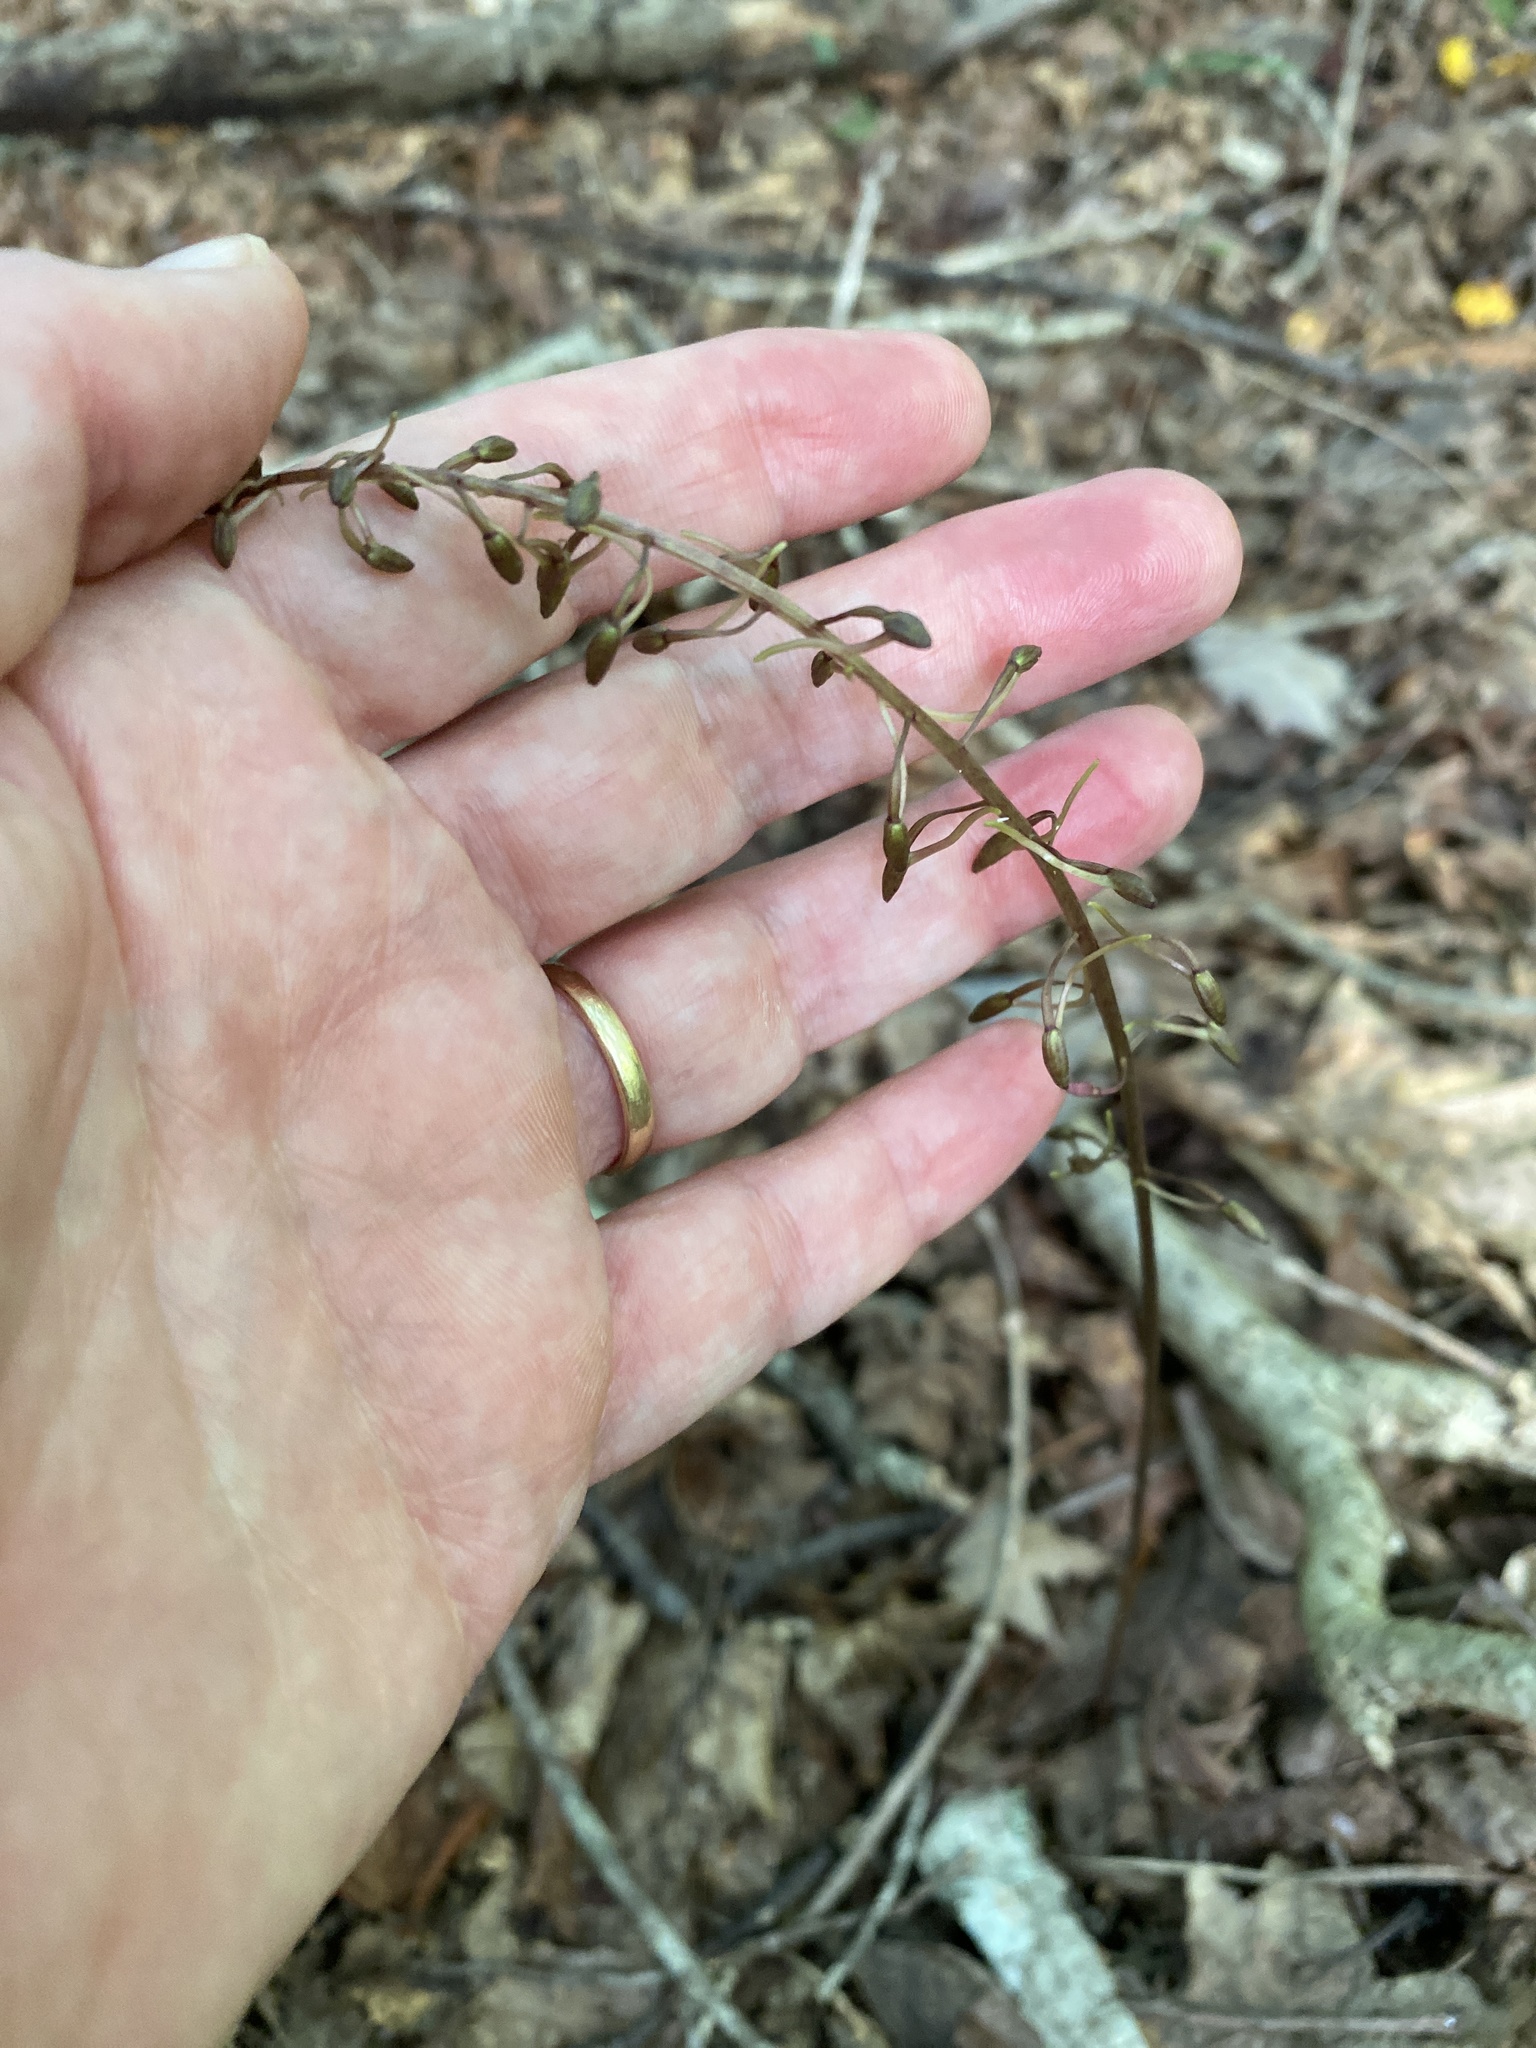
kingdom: Plantae
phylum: Tracheophyta
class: Liliopsida
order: Asparagales
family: Orchidaceae
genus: Tipularia
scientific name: Tipularia discolor
